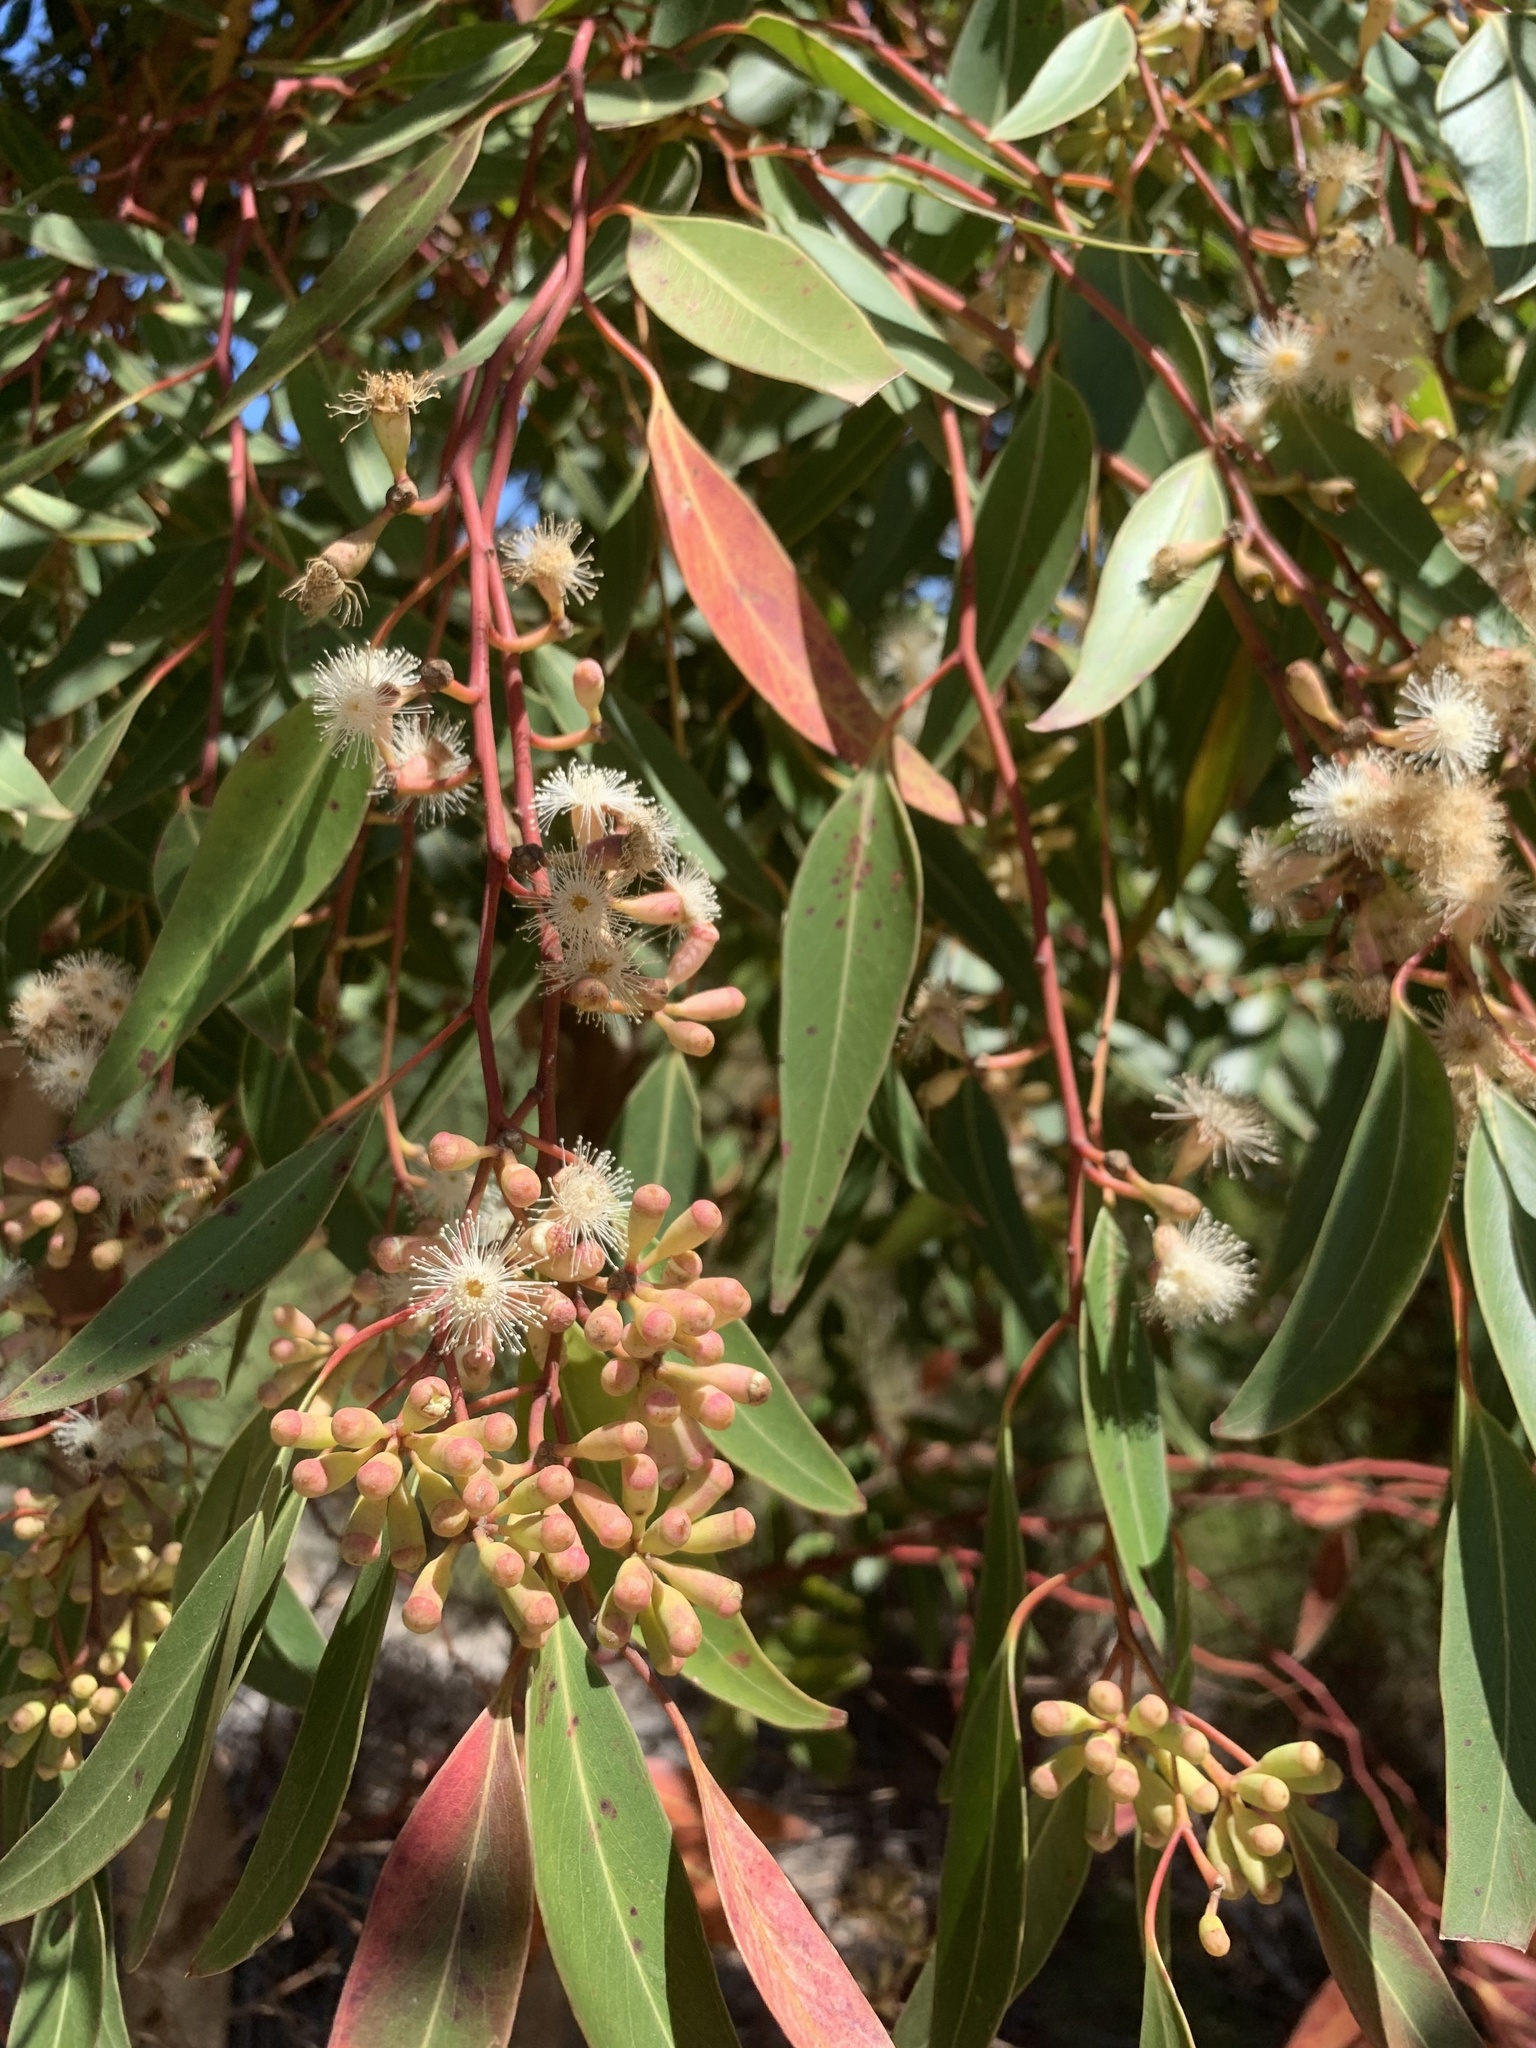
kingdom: Plantae
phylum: Tracheophyta
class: Magnoliopsida
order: Myrtales
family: Myrtaceae
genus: Eucalyptus
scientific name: Eucalyptus cladocalyx
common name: Sugargum
